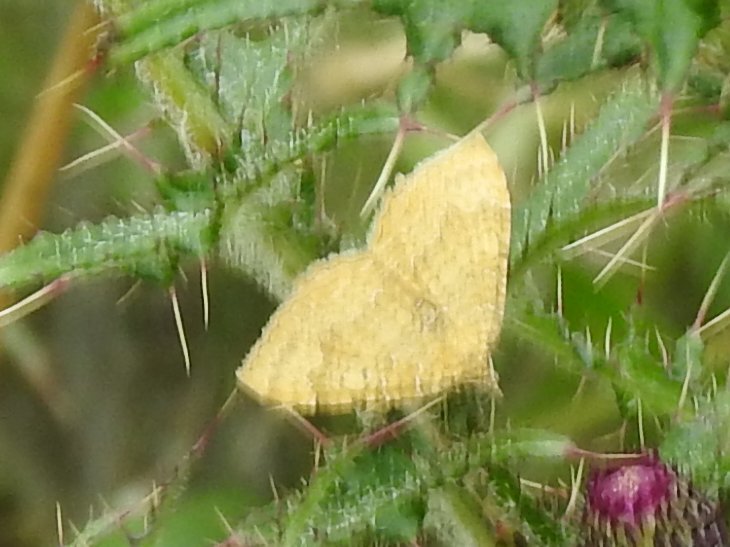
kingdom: Animalia
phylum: Arthropoda
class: Insecta
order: Lepidoptera
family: Geometridae
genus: Camptogramma
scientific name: Camptogramma bilineata
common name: Yellow shell
